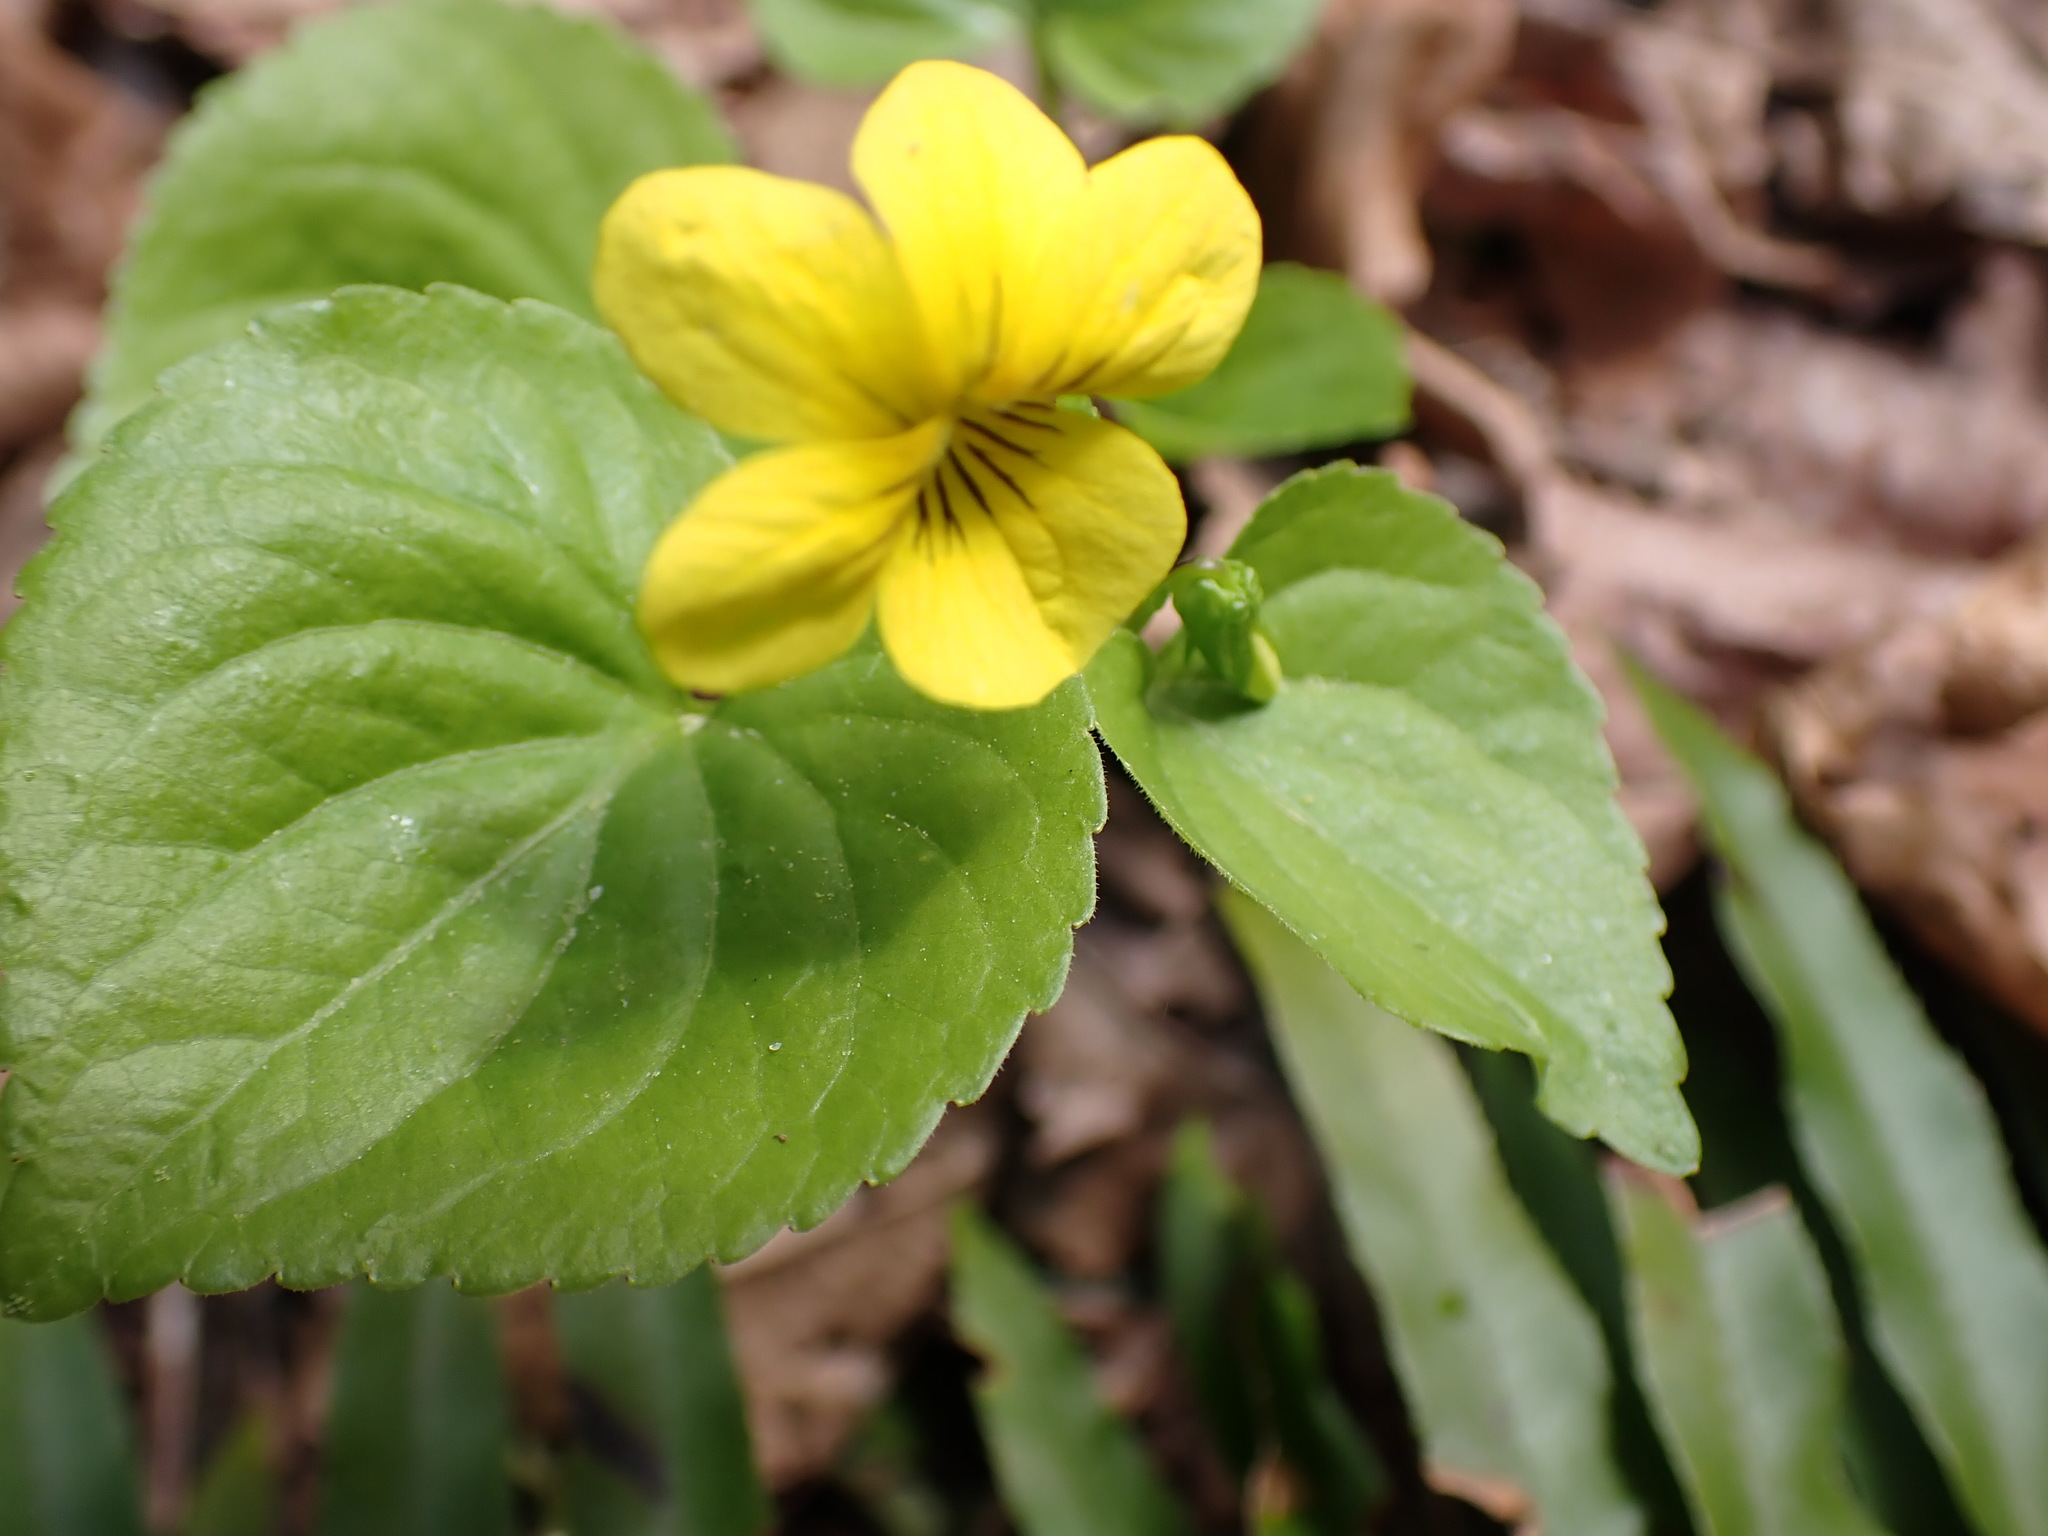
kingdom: Plantae
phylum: Tracheophyta
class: Magnoliopsida
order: Malpighiales
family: Violaceae
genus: Viola
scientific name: Viola glabella
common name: Stream violet
